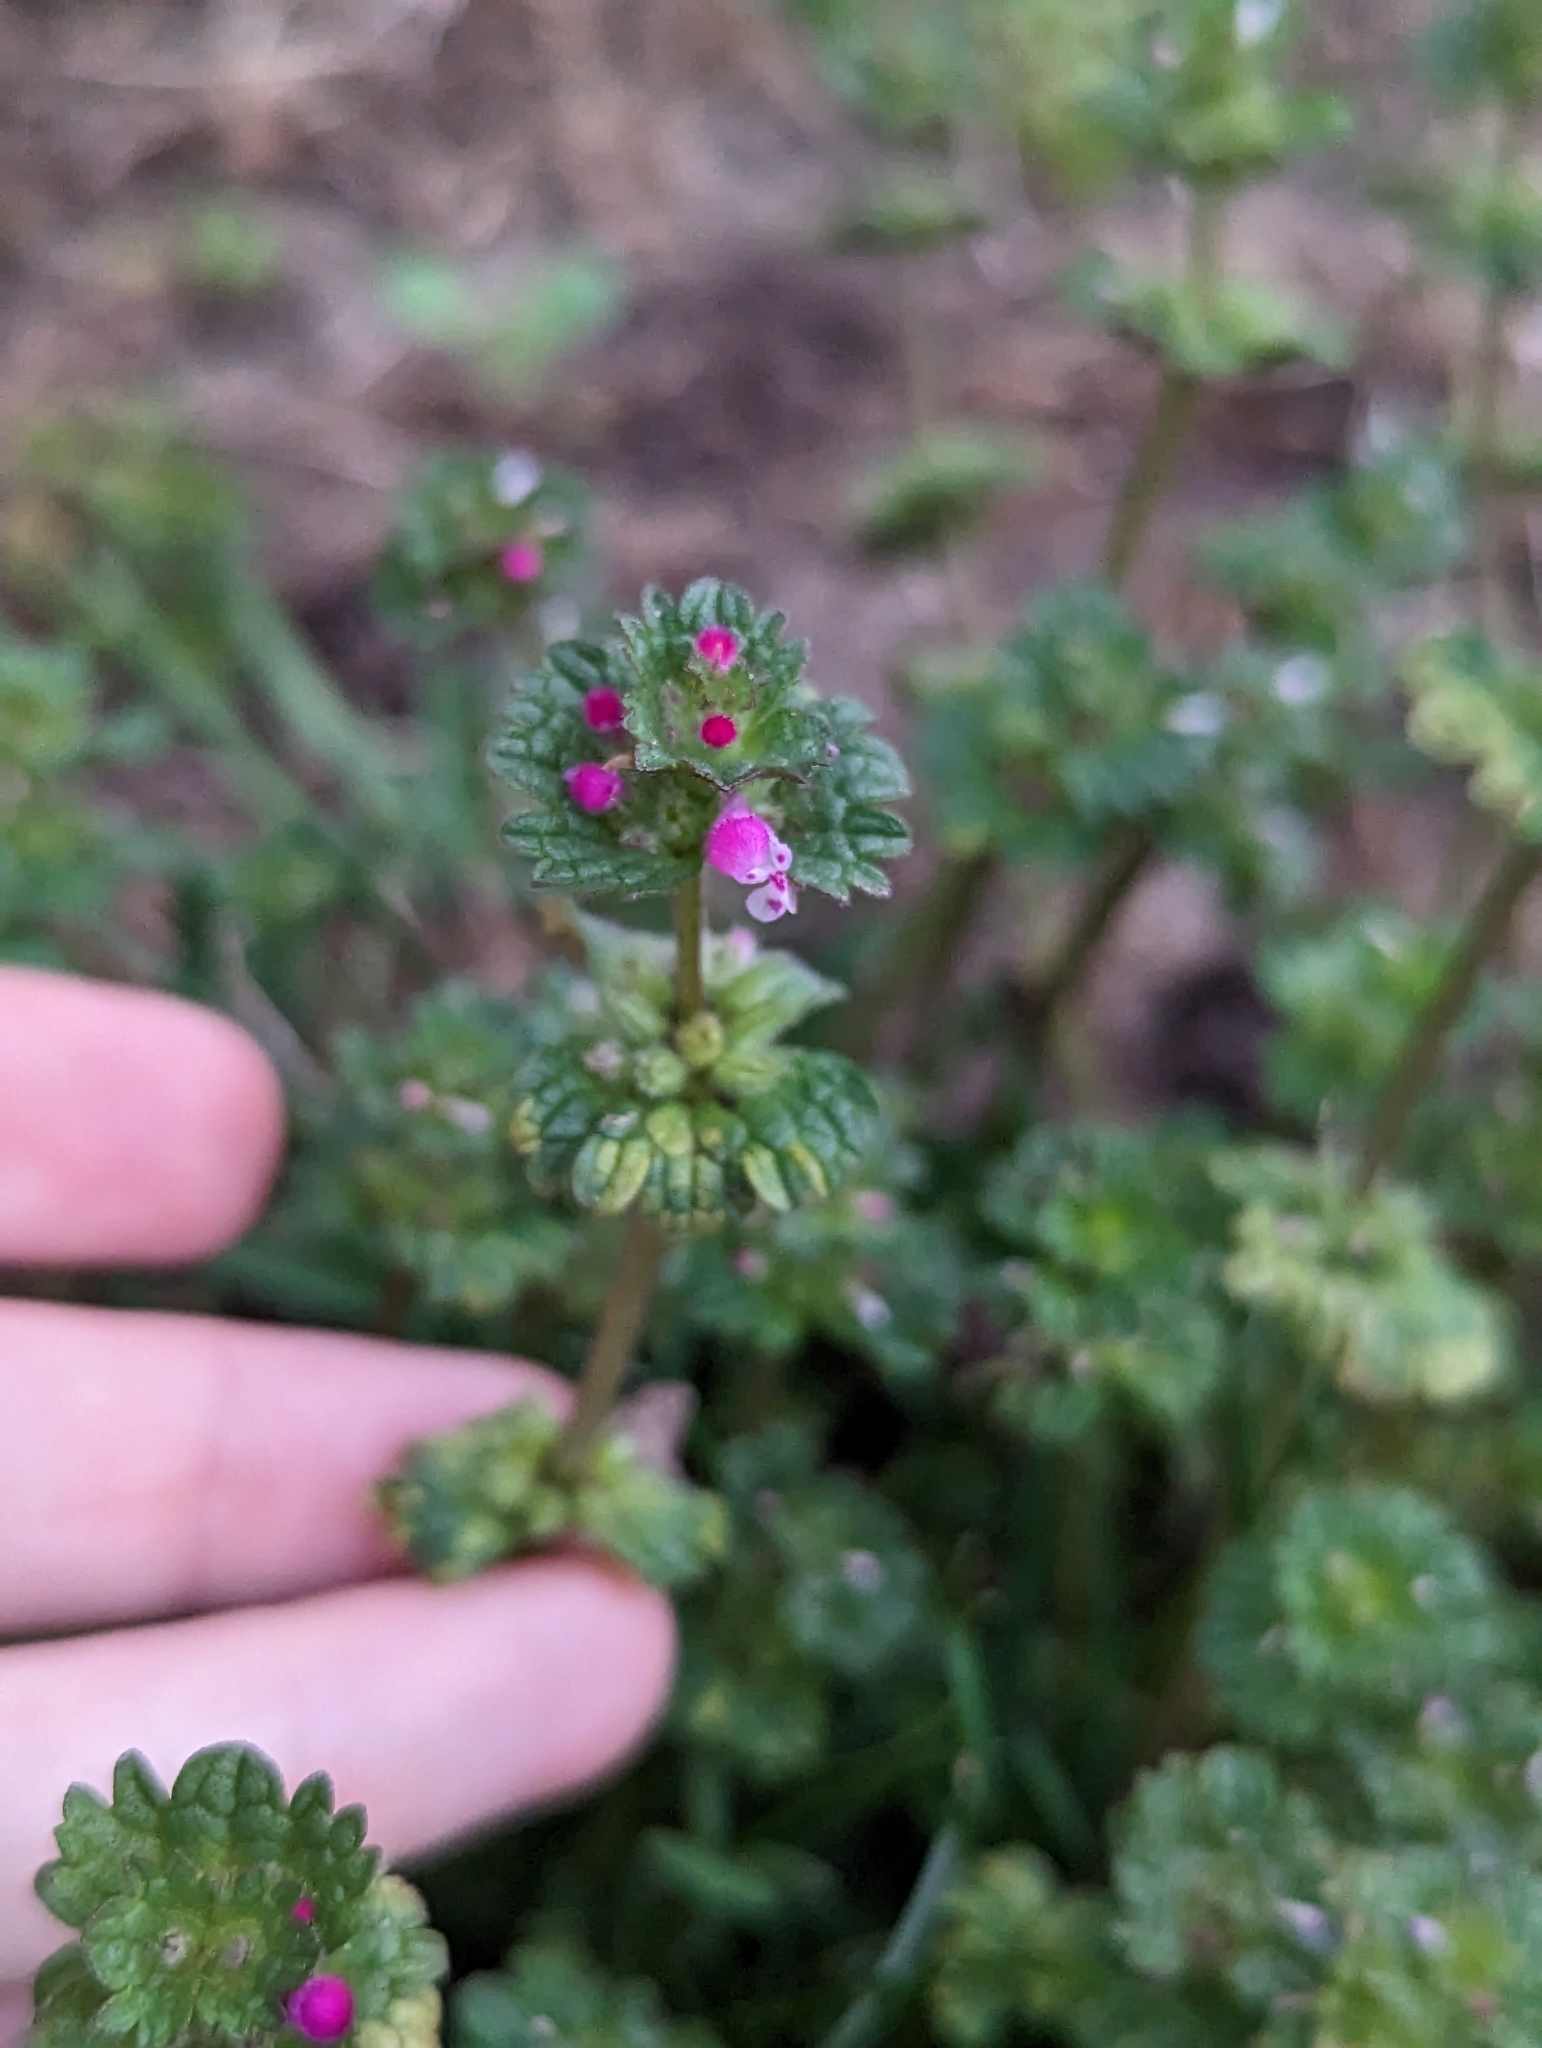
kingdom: Plantae
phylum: Tracheophyta
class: Magnoliopsida
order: Lamiales
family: Lamiaceae
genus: Lamium
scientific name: Lamium amplexicaule
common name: Henbit dead-nettle
